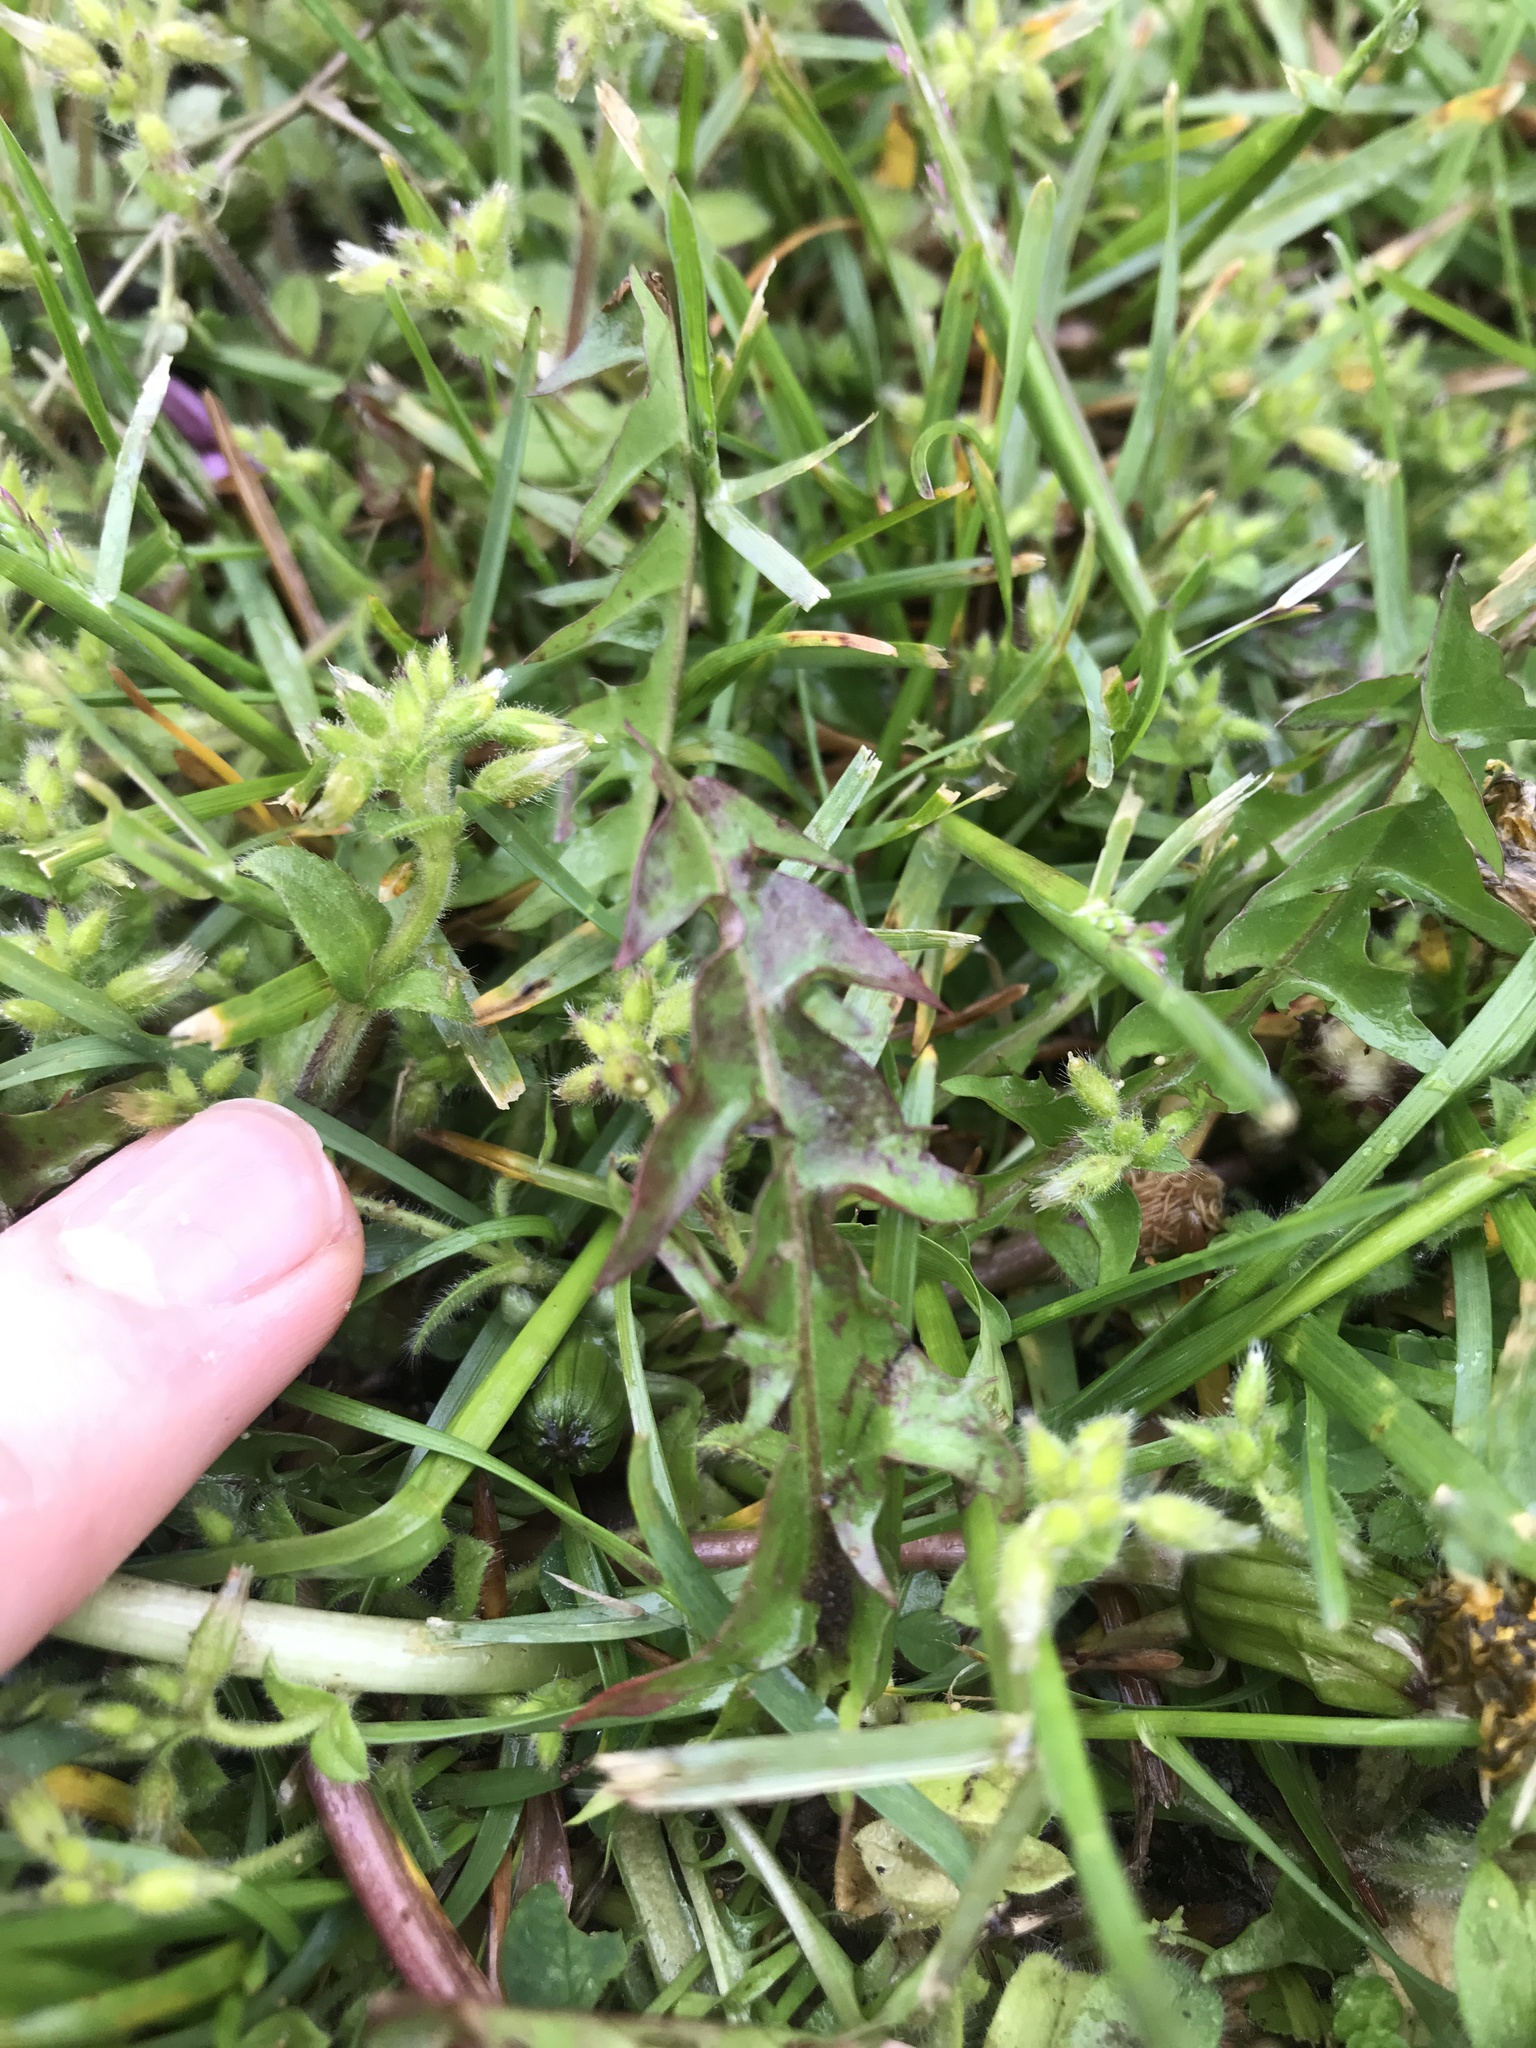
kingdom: Plantae
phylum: Tracheophyta
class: Magnoliopsida
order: Asterales
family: Asteraceae
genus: Taraxacum
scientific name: Taraxacum erythrospermum
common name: Rock dandelion
